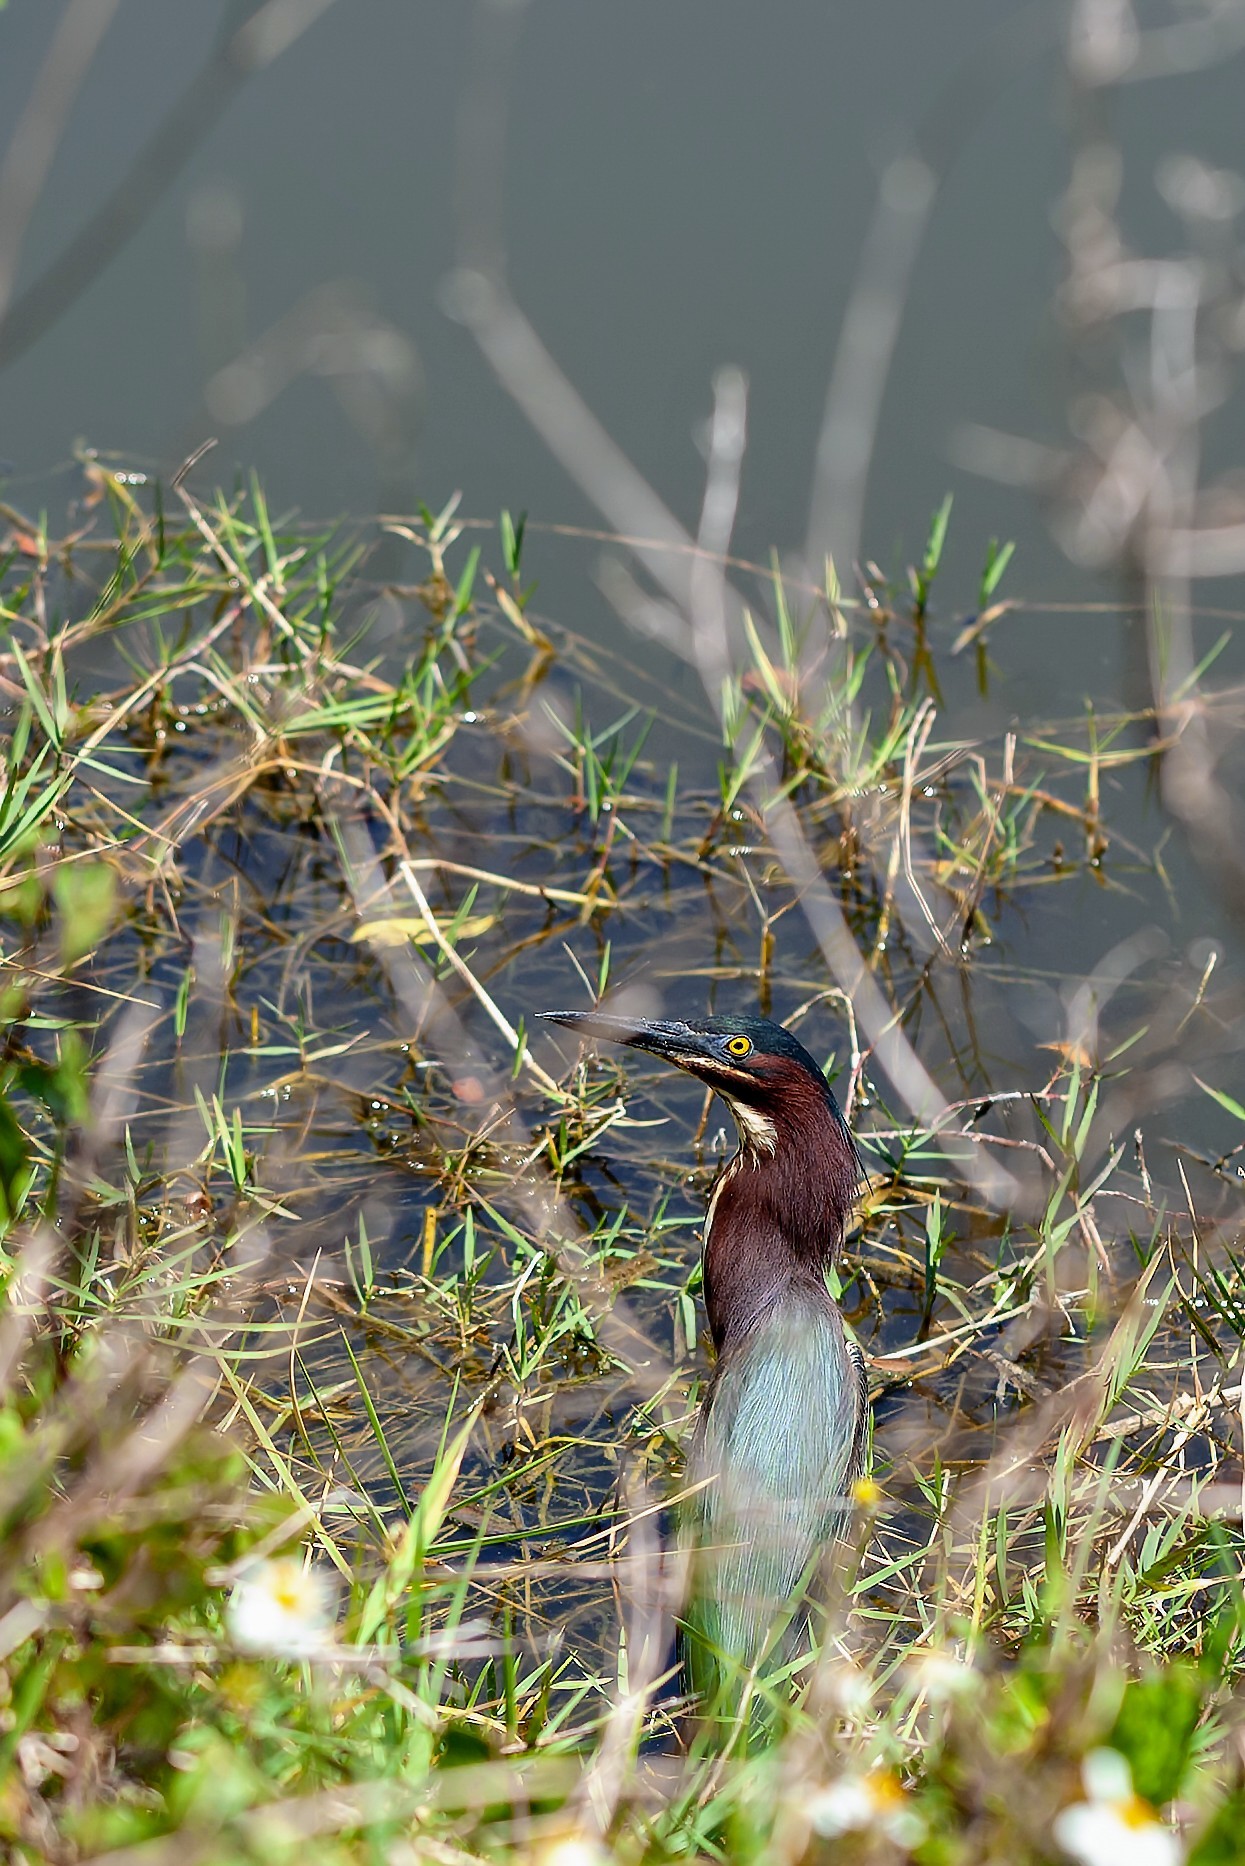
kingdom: Animalia
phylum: Chordata
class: Aves
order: Pelecaniformes
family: Ardeidae
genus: Butorides
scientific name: Butorides virescens
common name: Green heron
